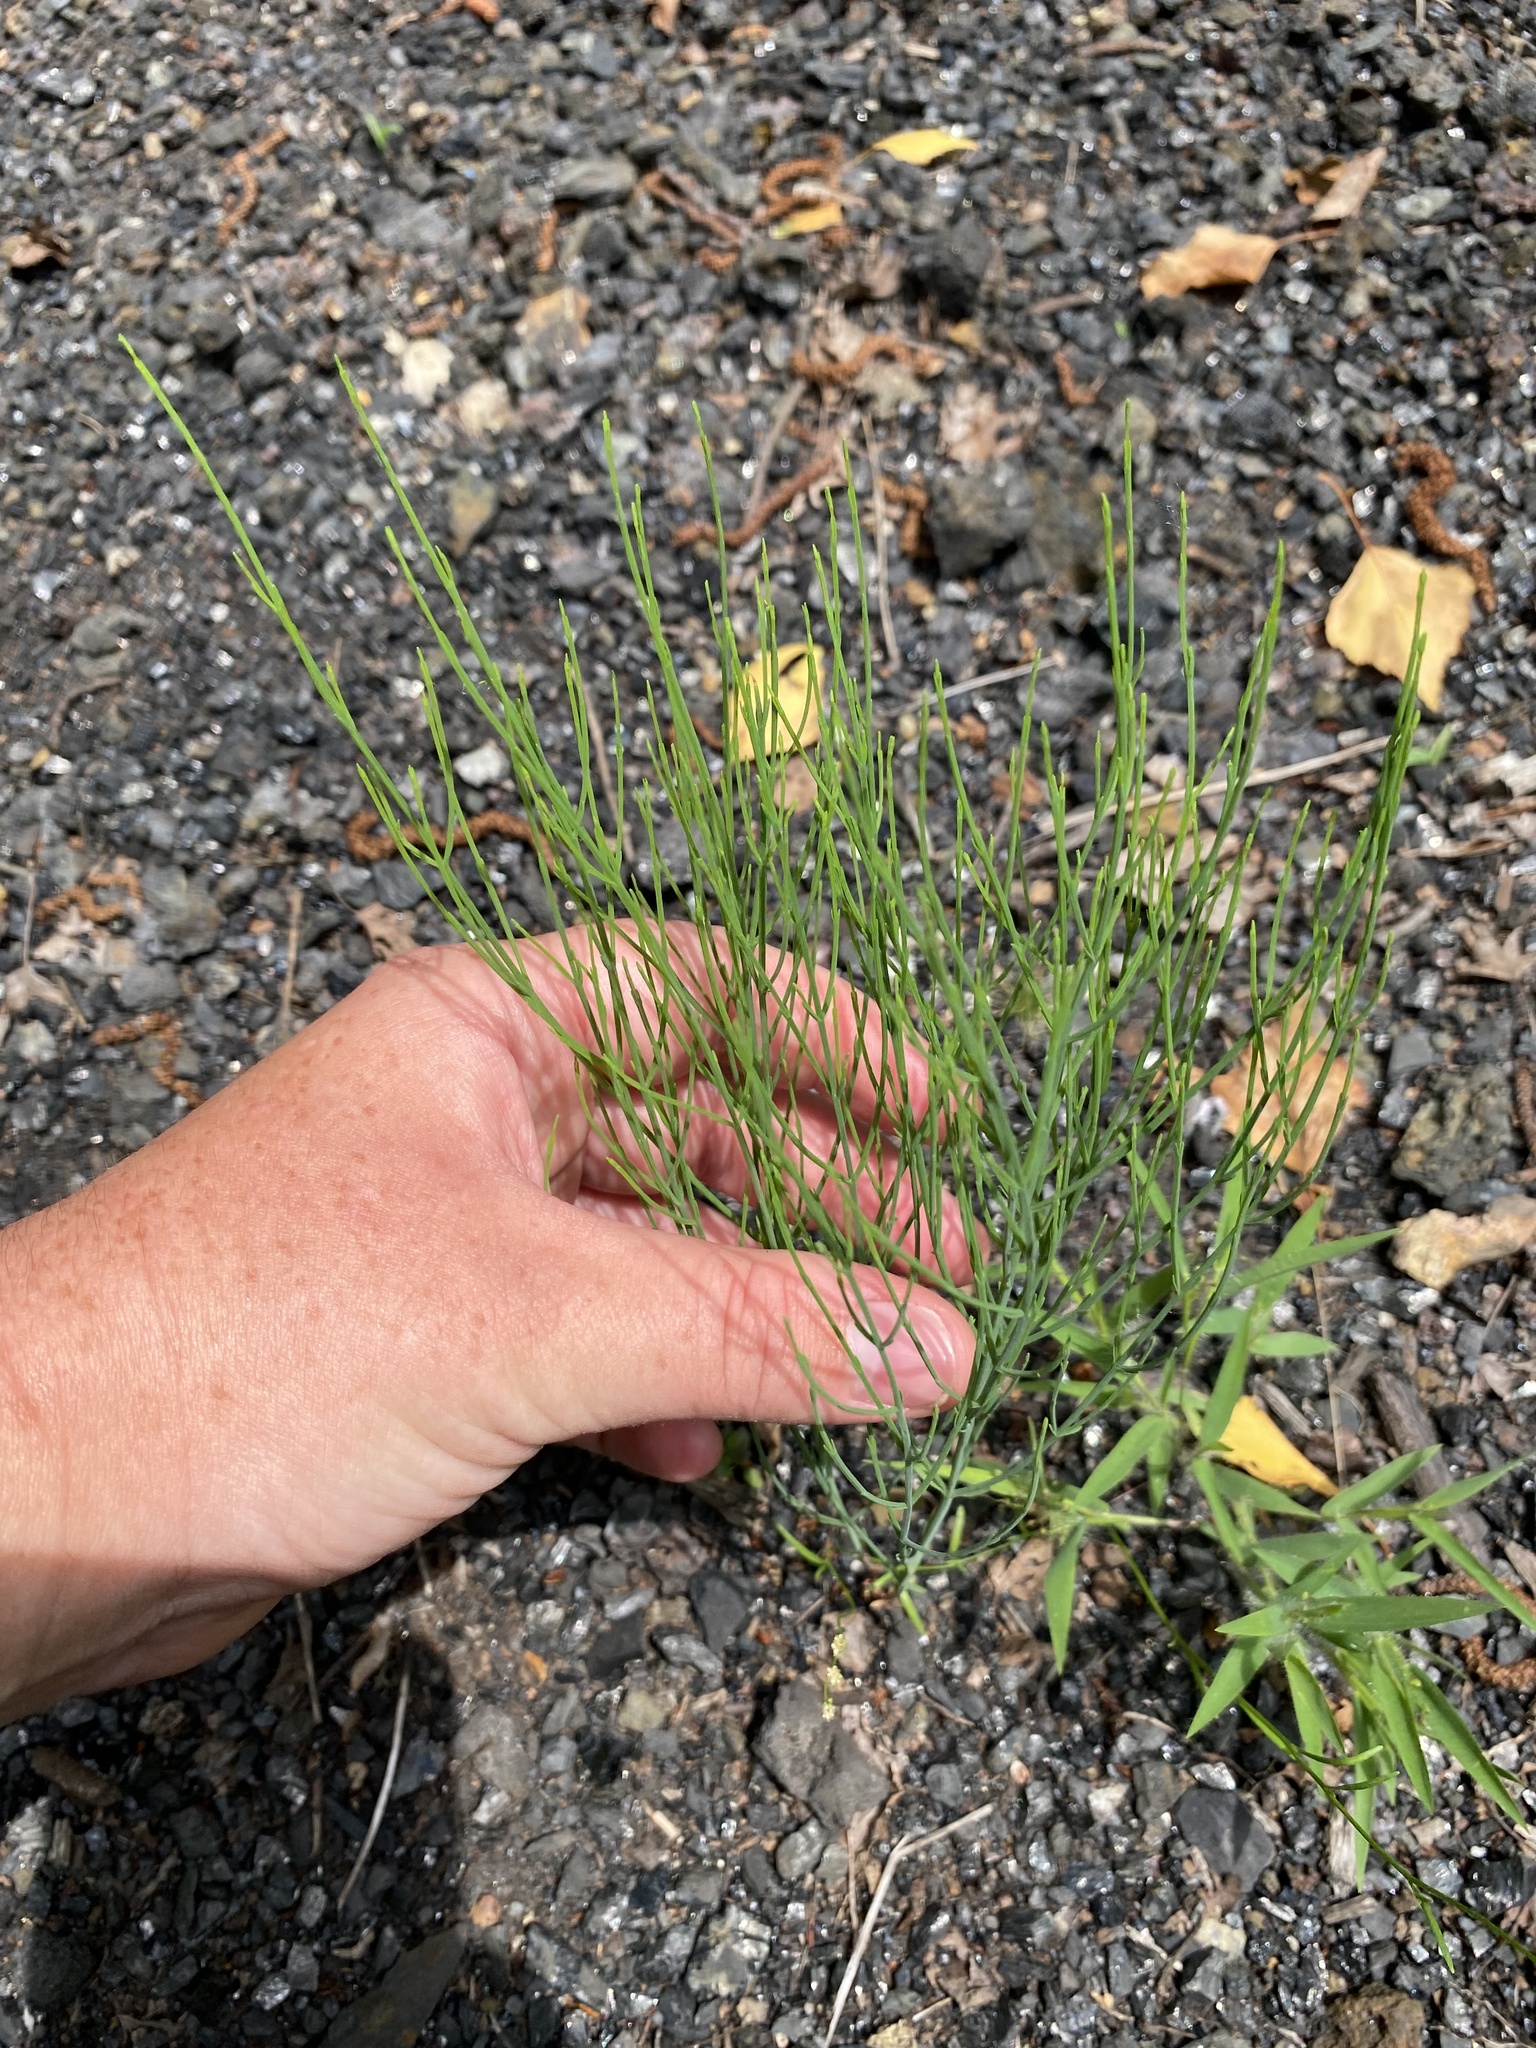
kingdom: Plantae
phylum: Tracheophyta
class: Magnoliopsida
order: Malpighiales
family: Hypericaceae
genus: Hypericum
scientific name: Hypericum gentianoides
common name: Gentian-leaved st. john's-wort
